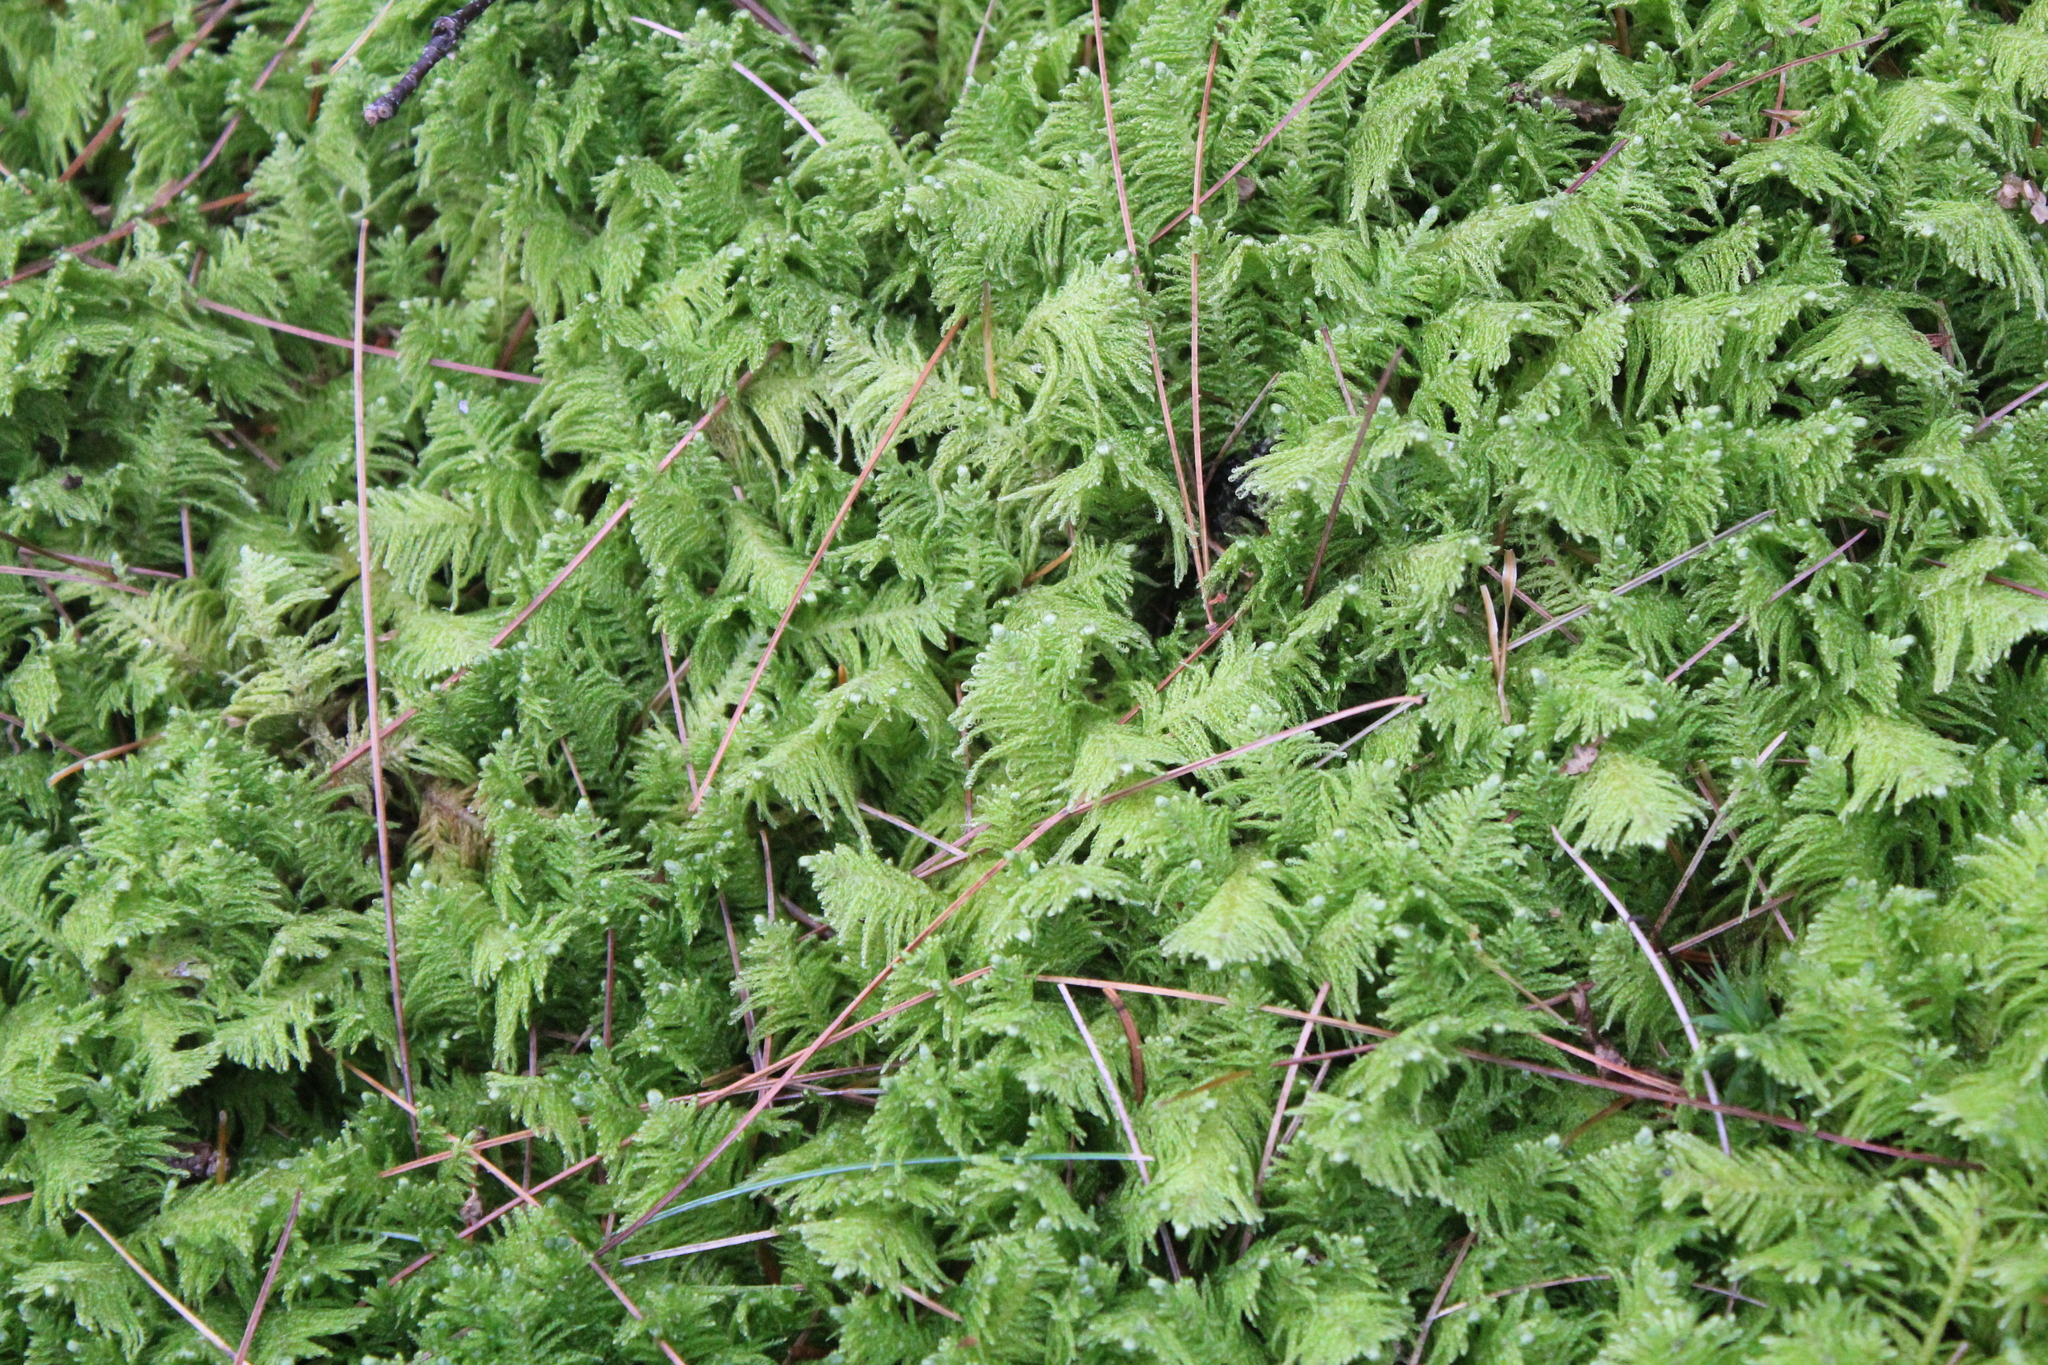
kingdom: Plantae
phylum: Bryophyta
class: Bryopsida
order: Hypnales
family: Pylaisiaceae
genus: Ptilium
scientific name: Ptilium crista-castrensis
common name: Knight's plume moss
